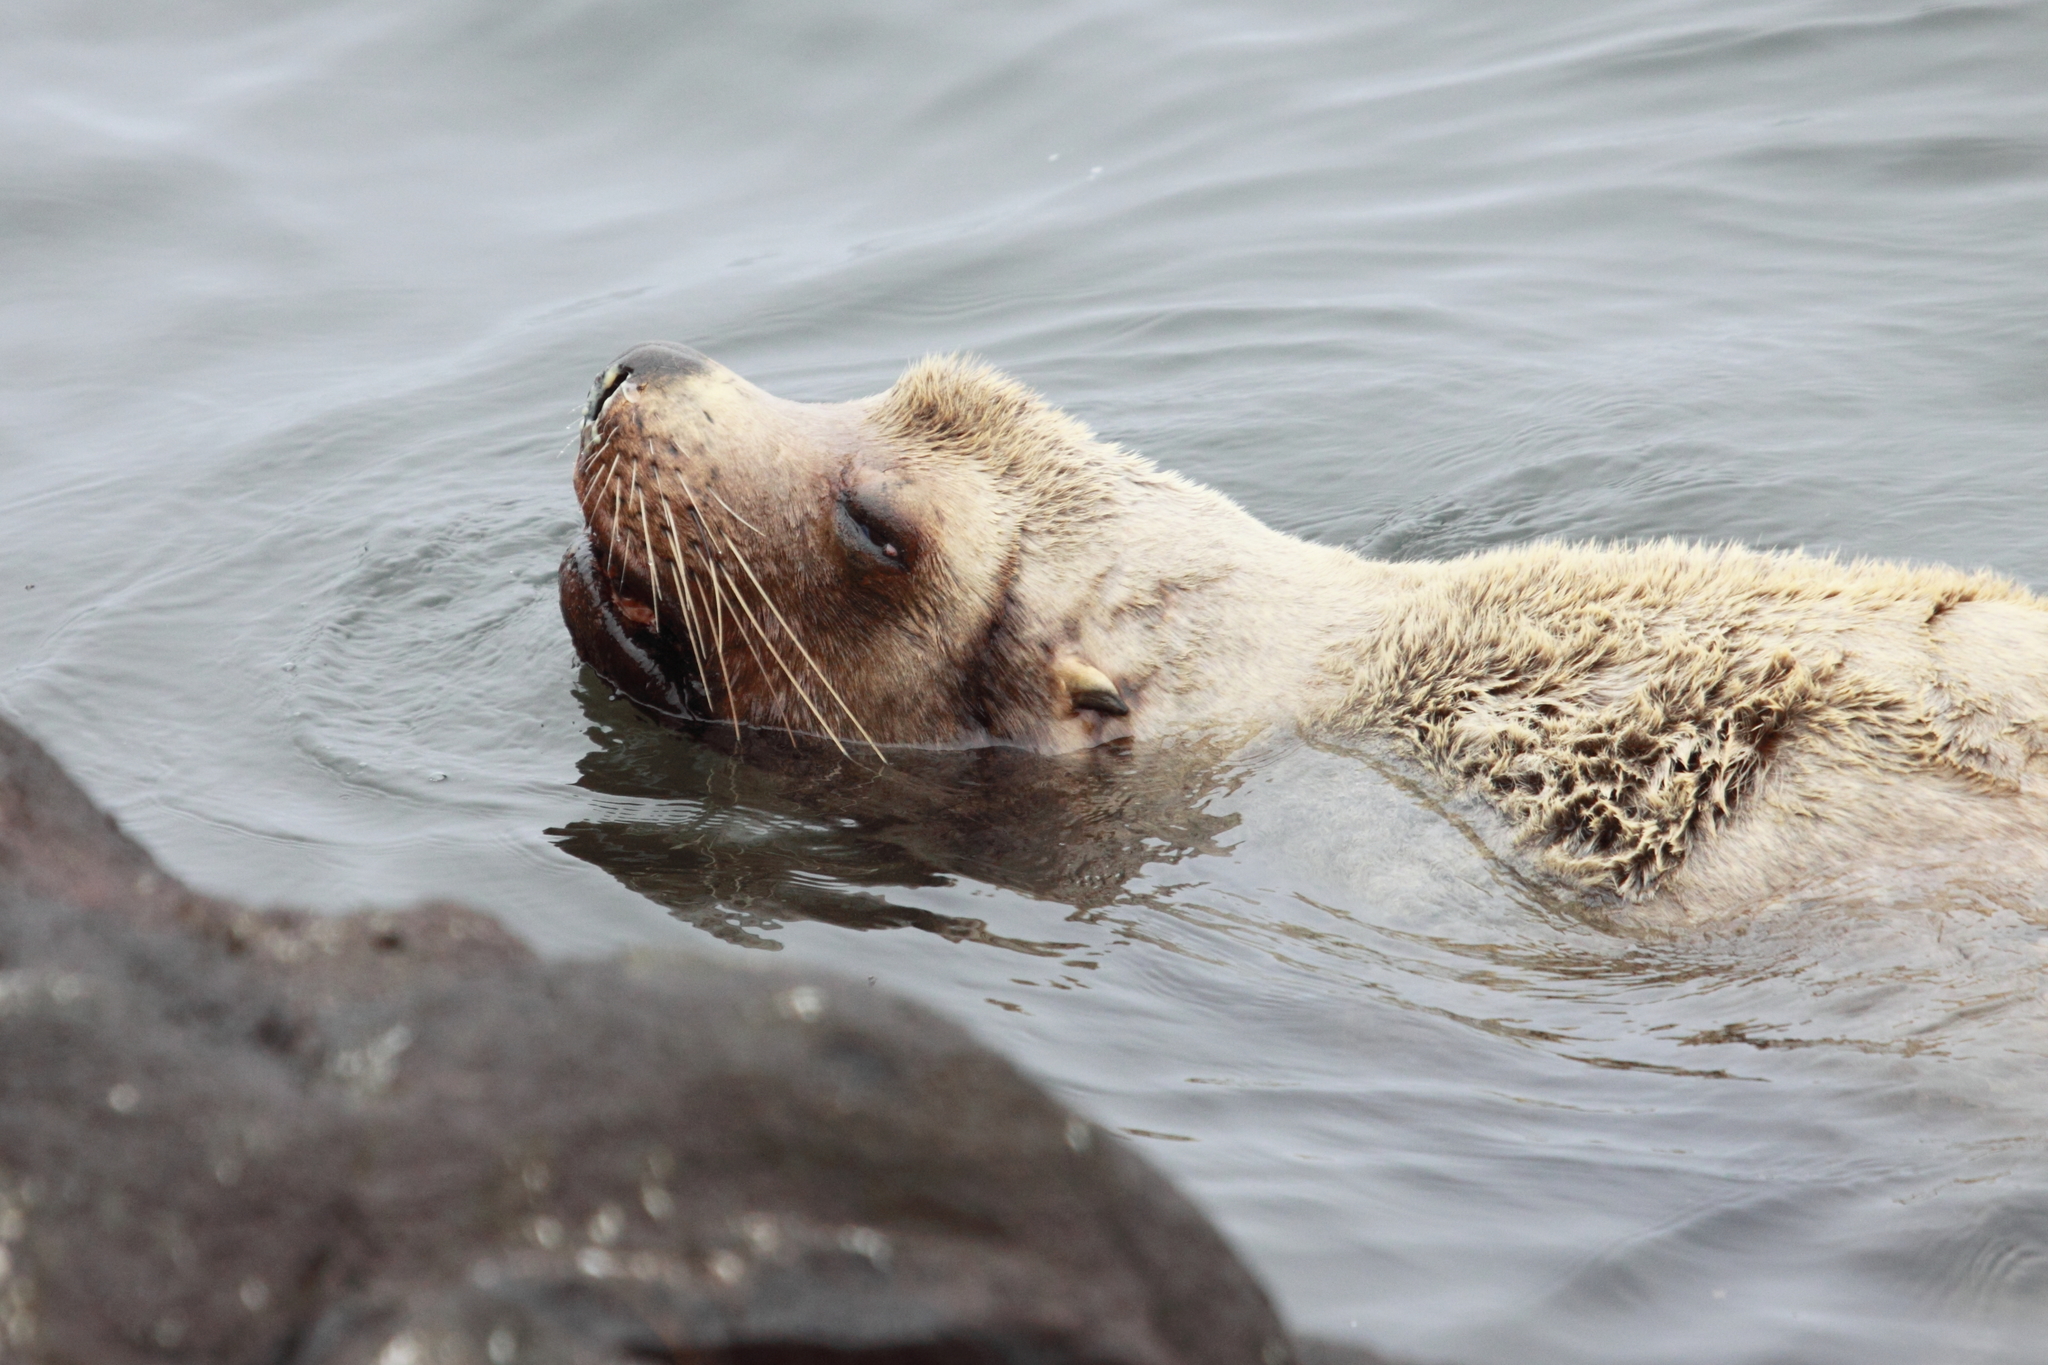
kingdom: Animalia
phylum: Chordata
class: Mammalia
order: Carnivora
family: Otariidae
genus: Eumetopias
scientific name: Eumetopias jubatus
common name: Steller sea lion
